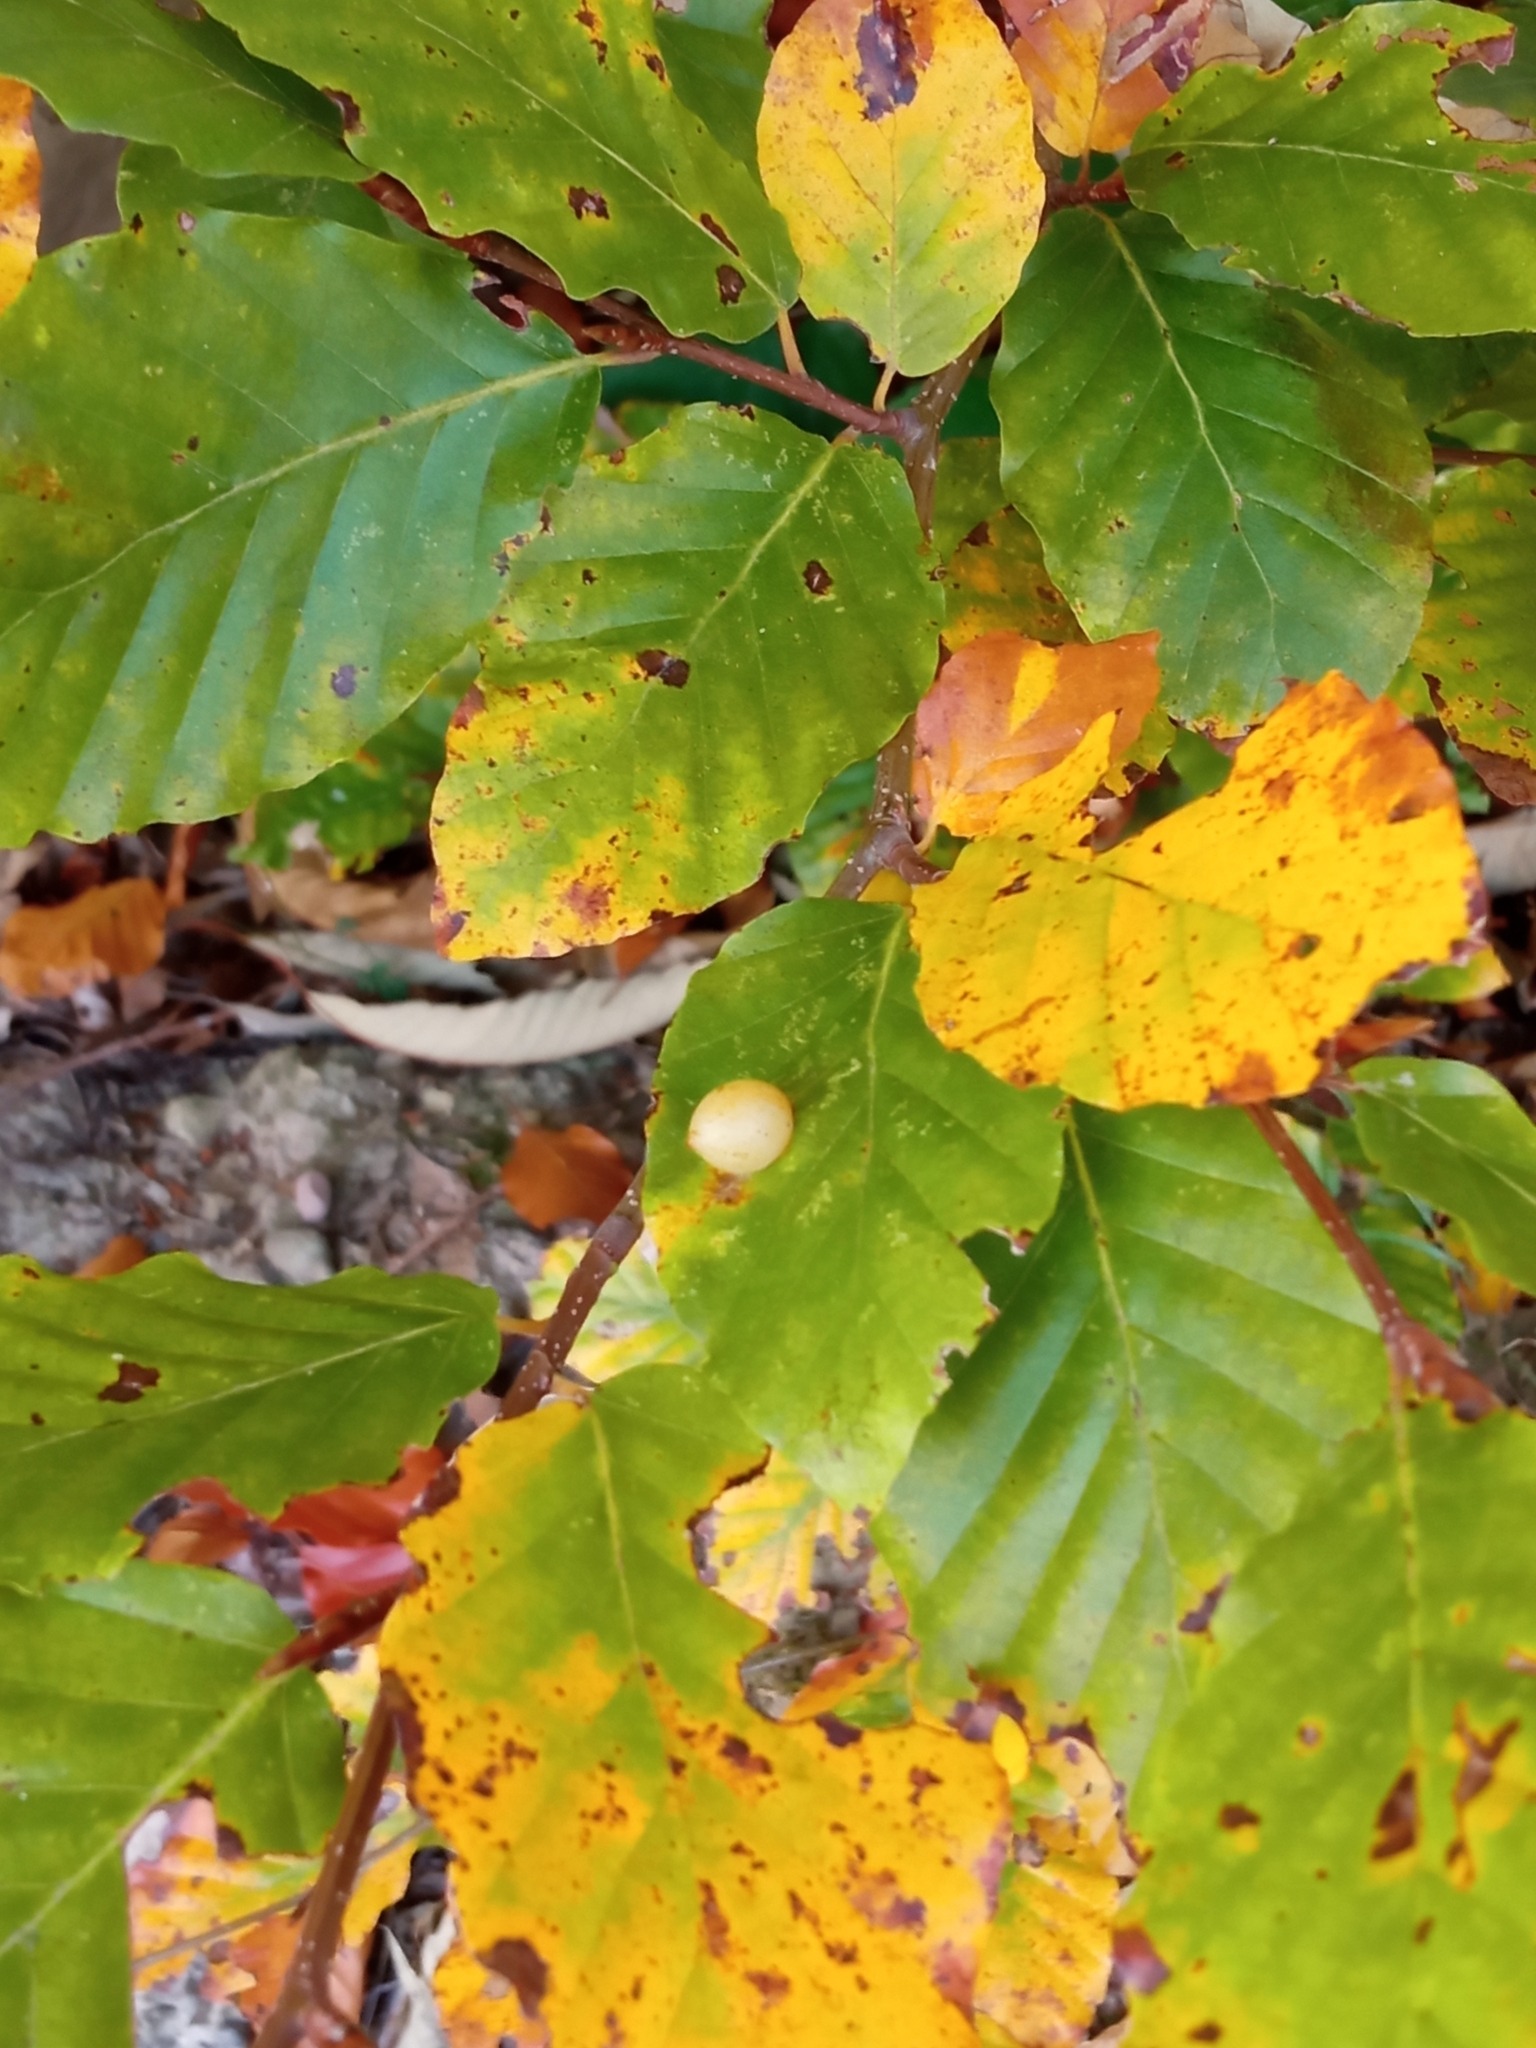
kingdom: Animalia
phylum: Arthropoda
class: Insecta
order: Diptera
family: Cecidomyiidae
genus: Mikiola
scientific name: Mikiola fagi
